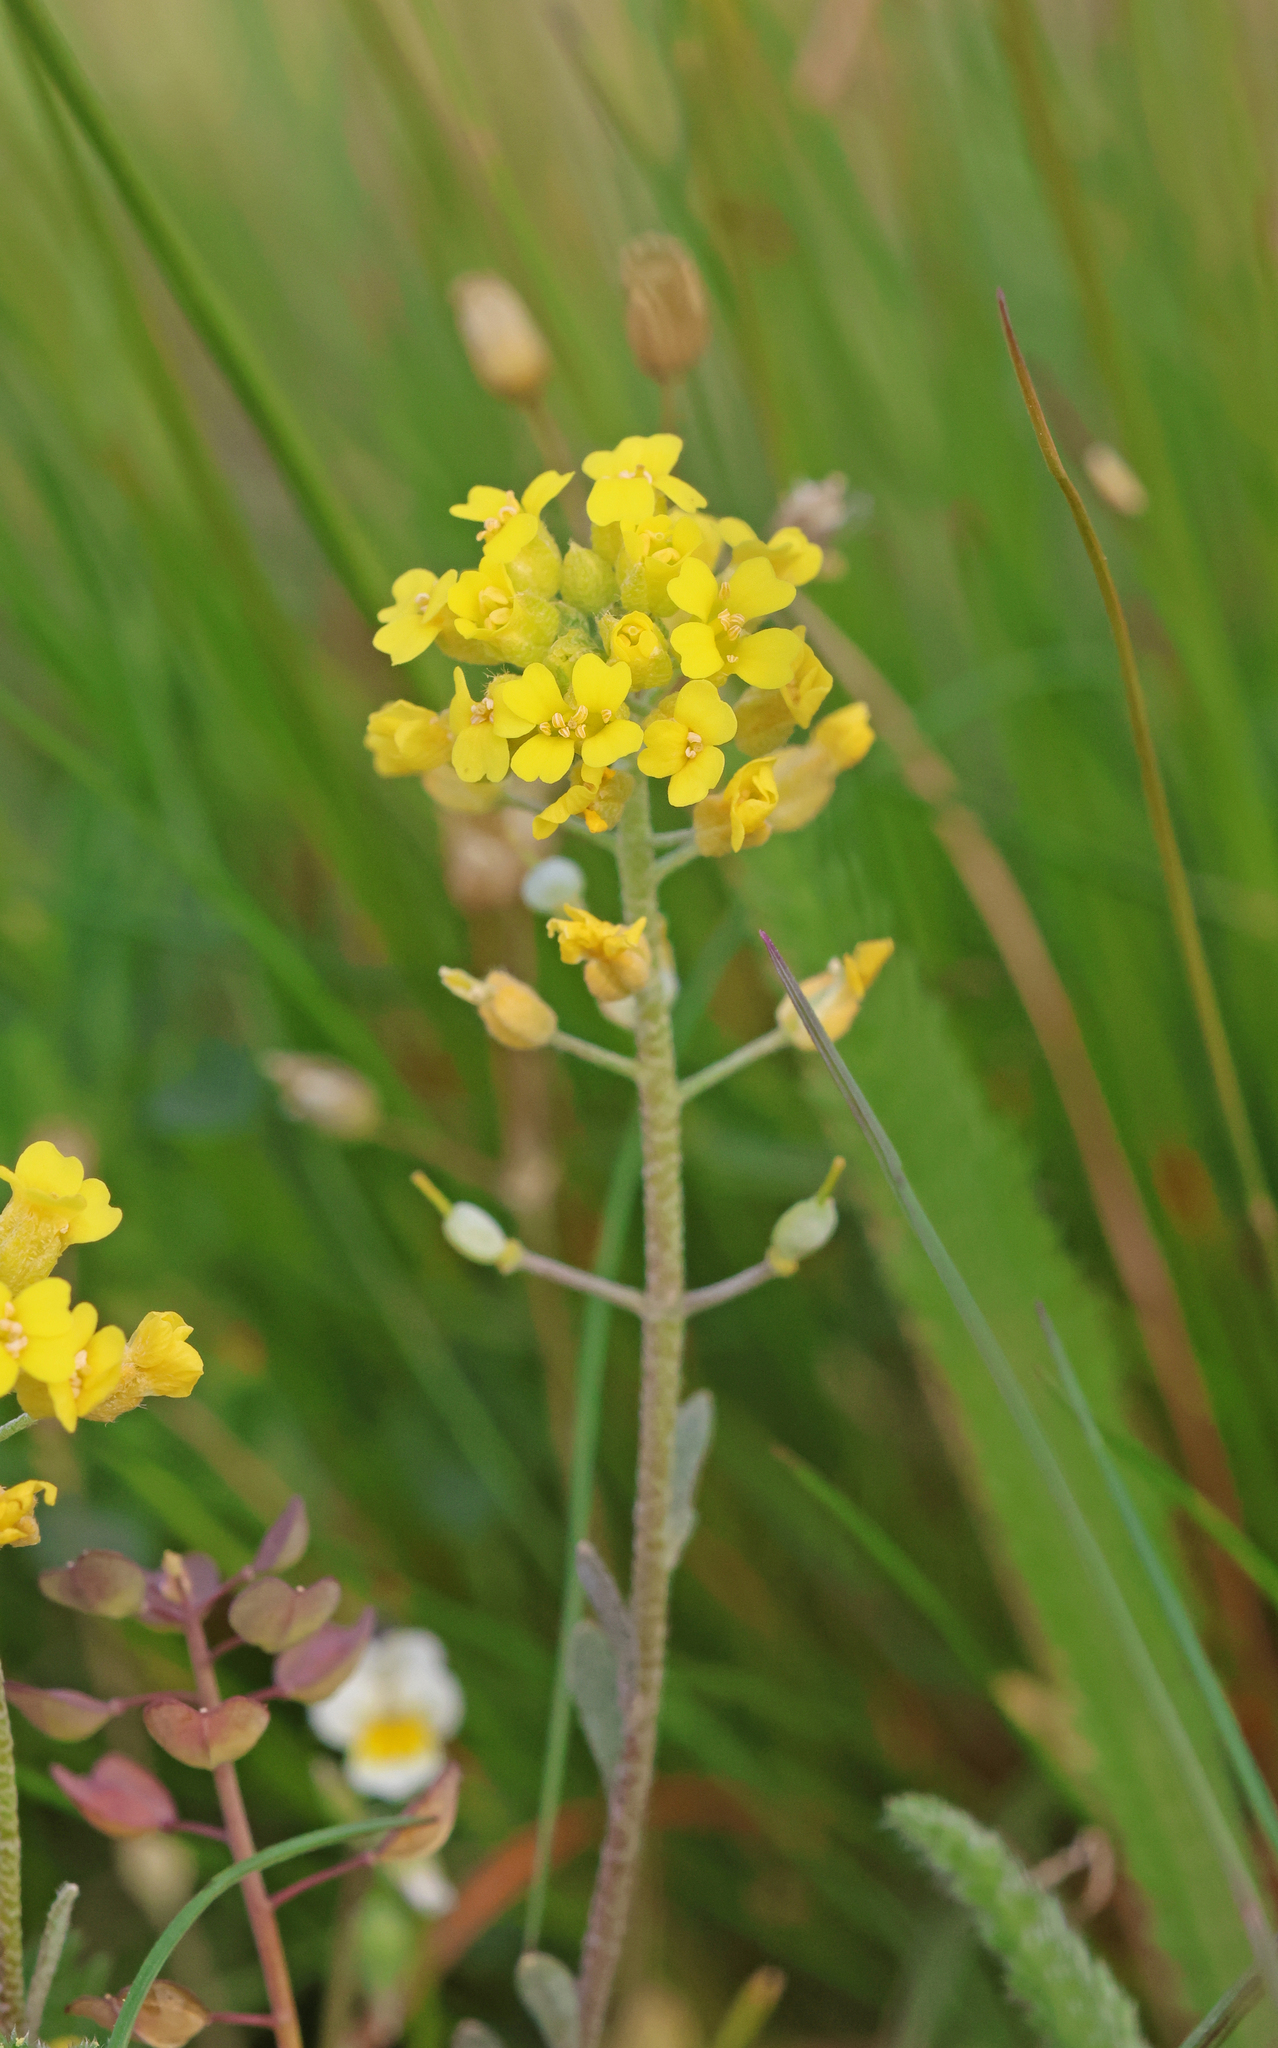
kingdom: Plantae
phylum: Tracheophyta
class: Magnoliopsida
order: Brassicales
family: Brassicaceae
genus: Alyssum
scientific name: Alyssum gmelinii
